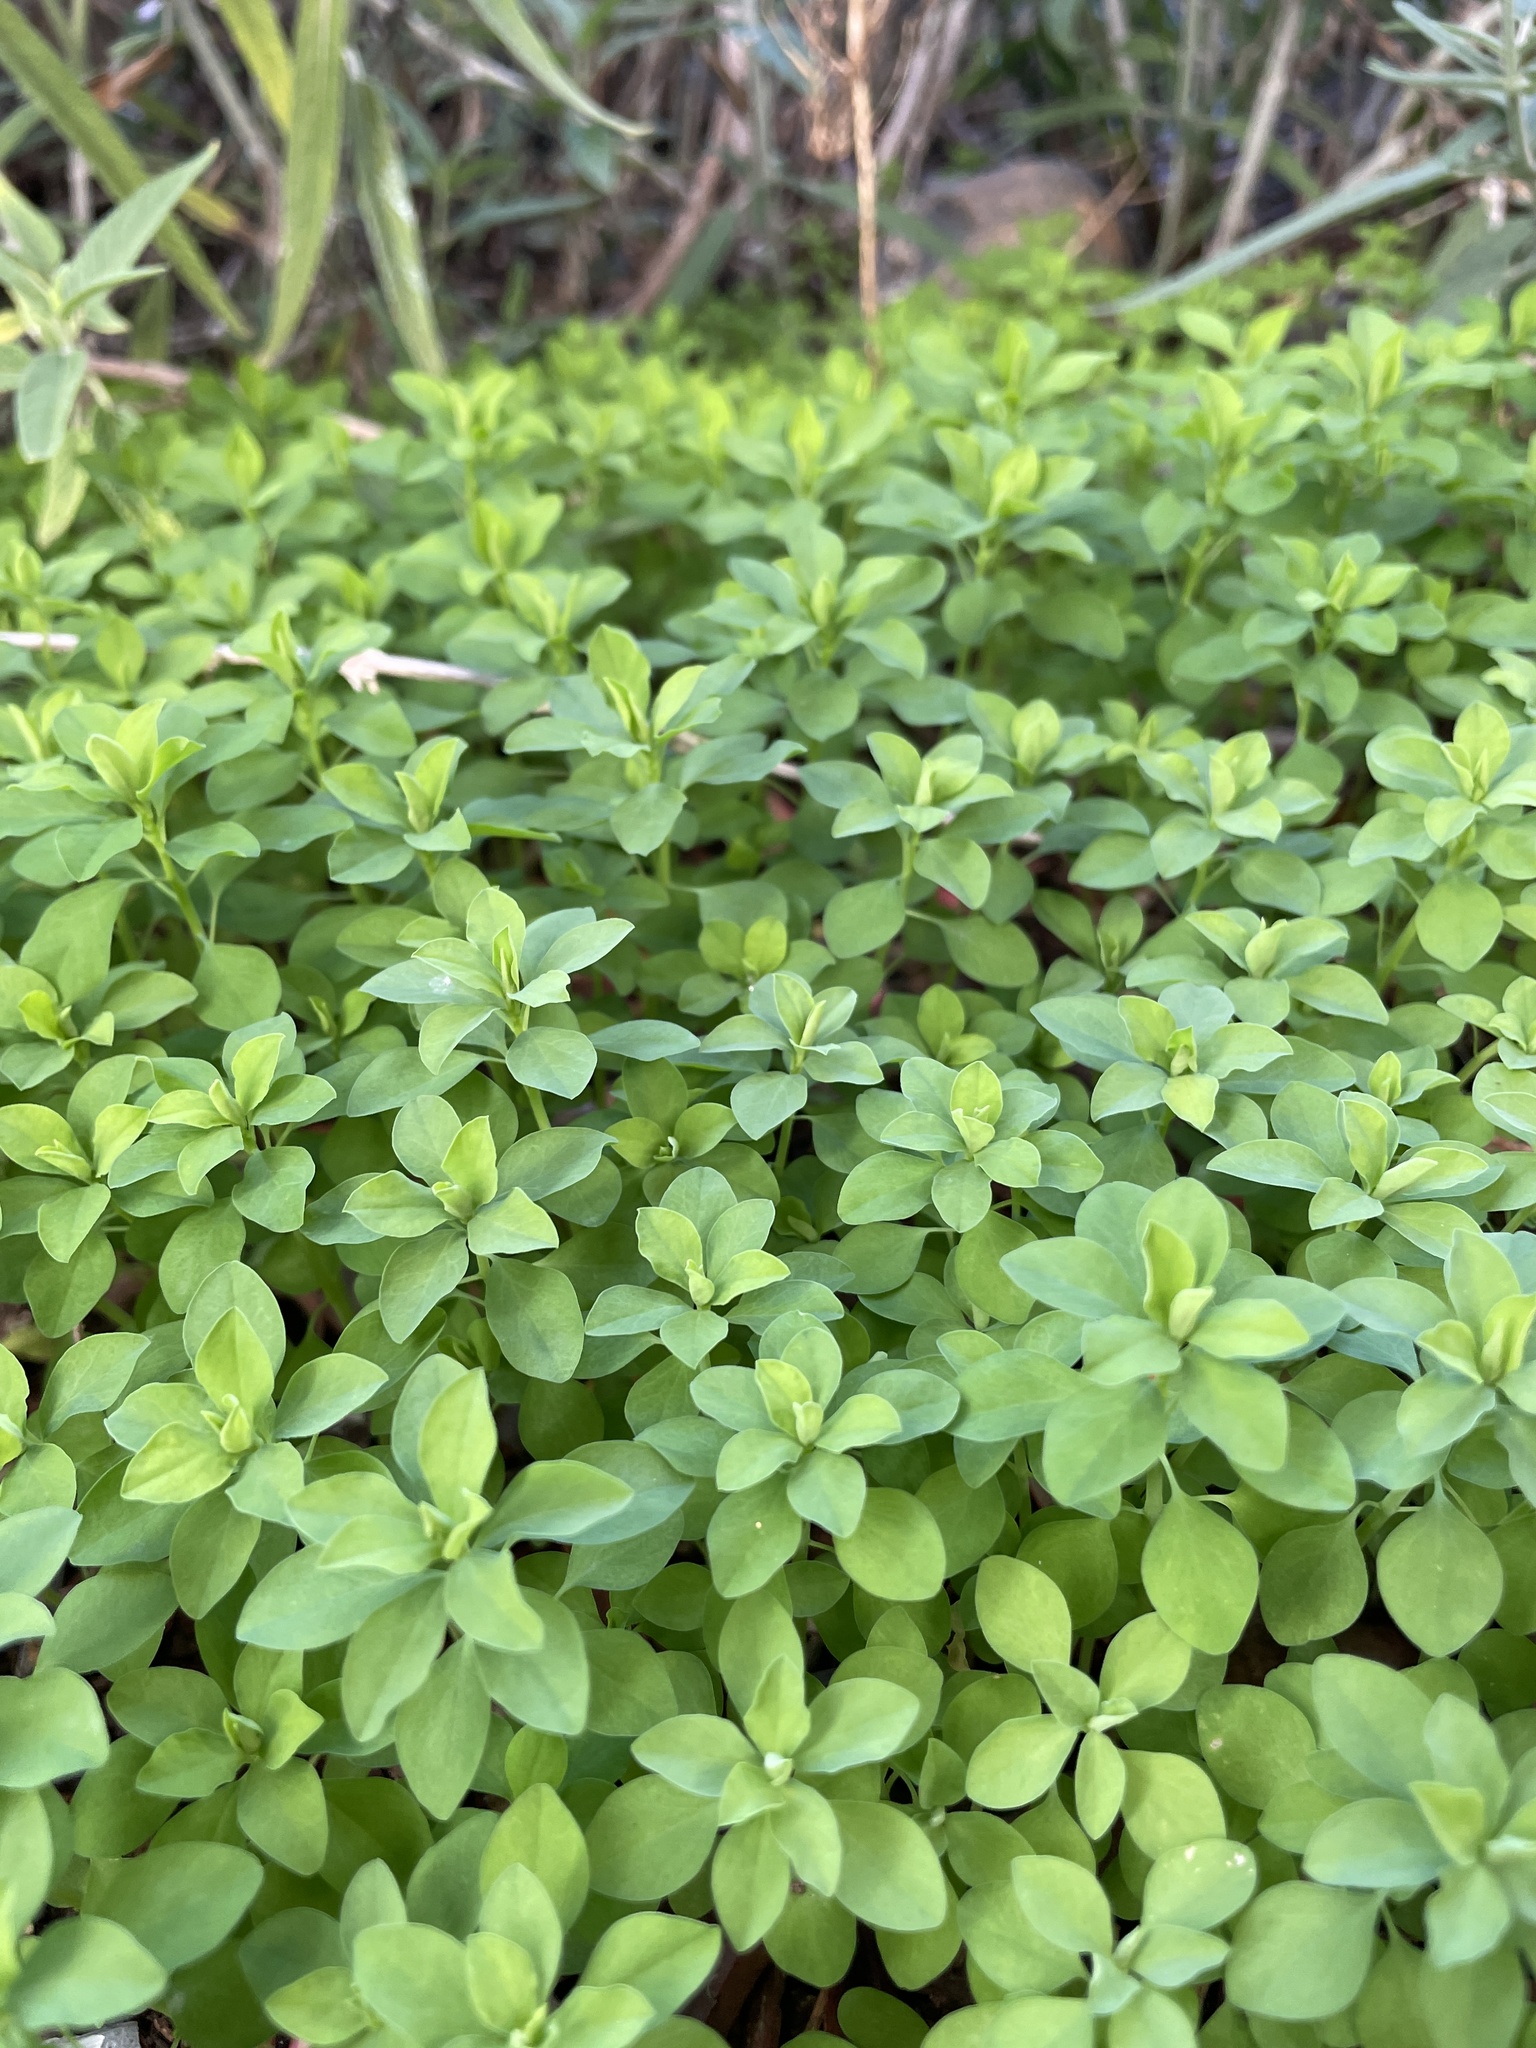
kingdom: Plantae
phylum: Tracheophyta
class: Magnoliopsida
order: Malpighiales
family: Euphorbiaceae
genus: Euphorbia
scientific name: Euphorbia peplus
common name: Petty spurge
